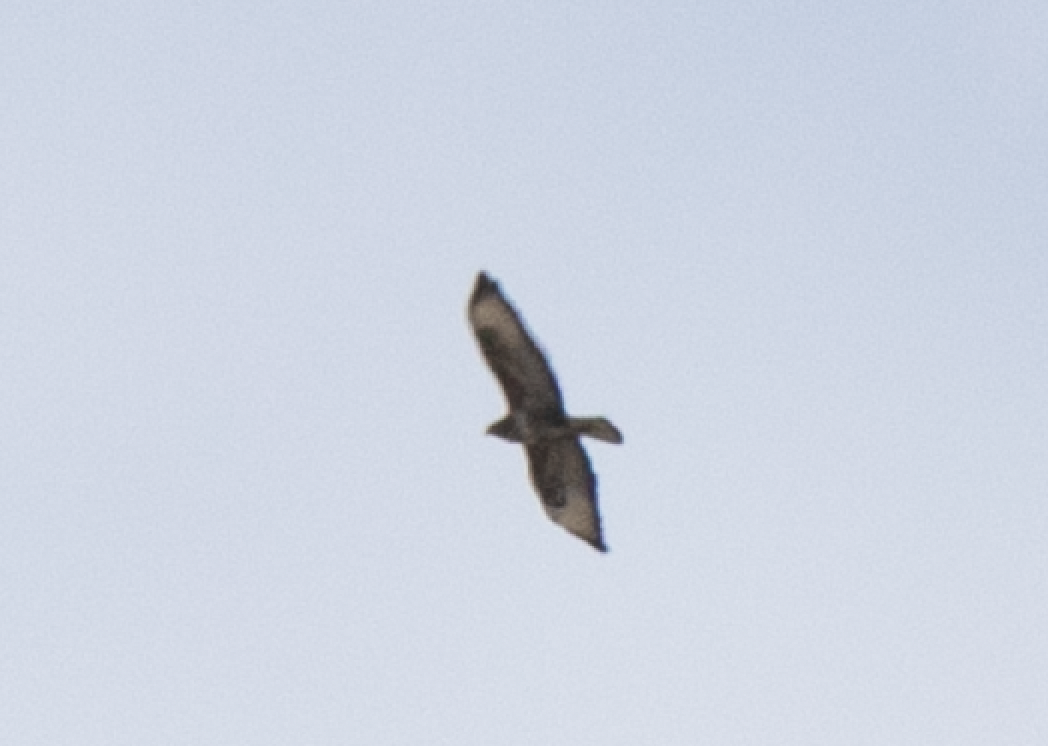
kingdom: Animalia
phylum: Chordata
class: Aves
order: Accipitriformes
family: Accipitridae
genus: Buteo
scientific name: Buteo buteo
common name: Common buzzard
